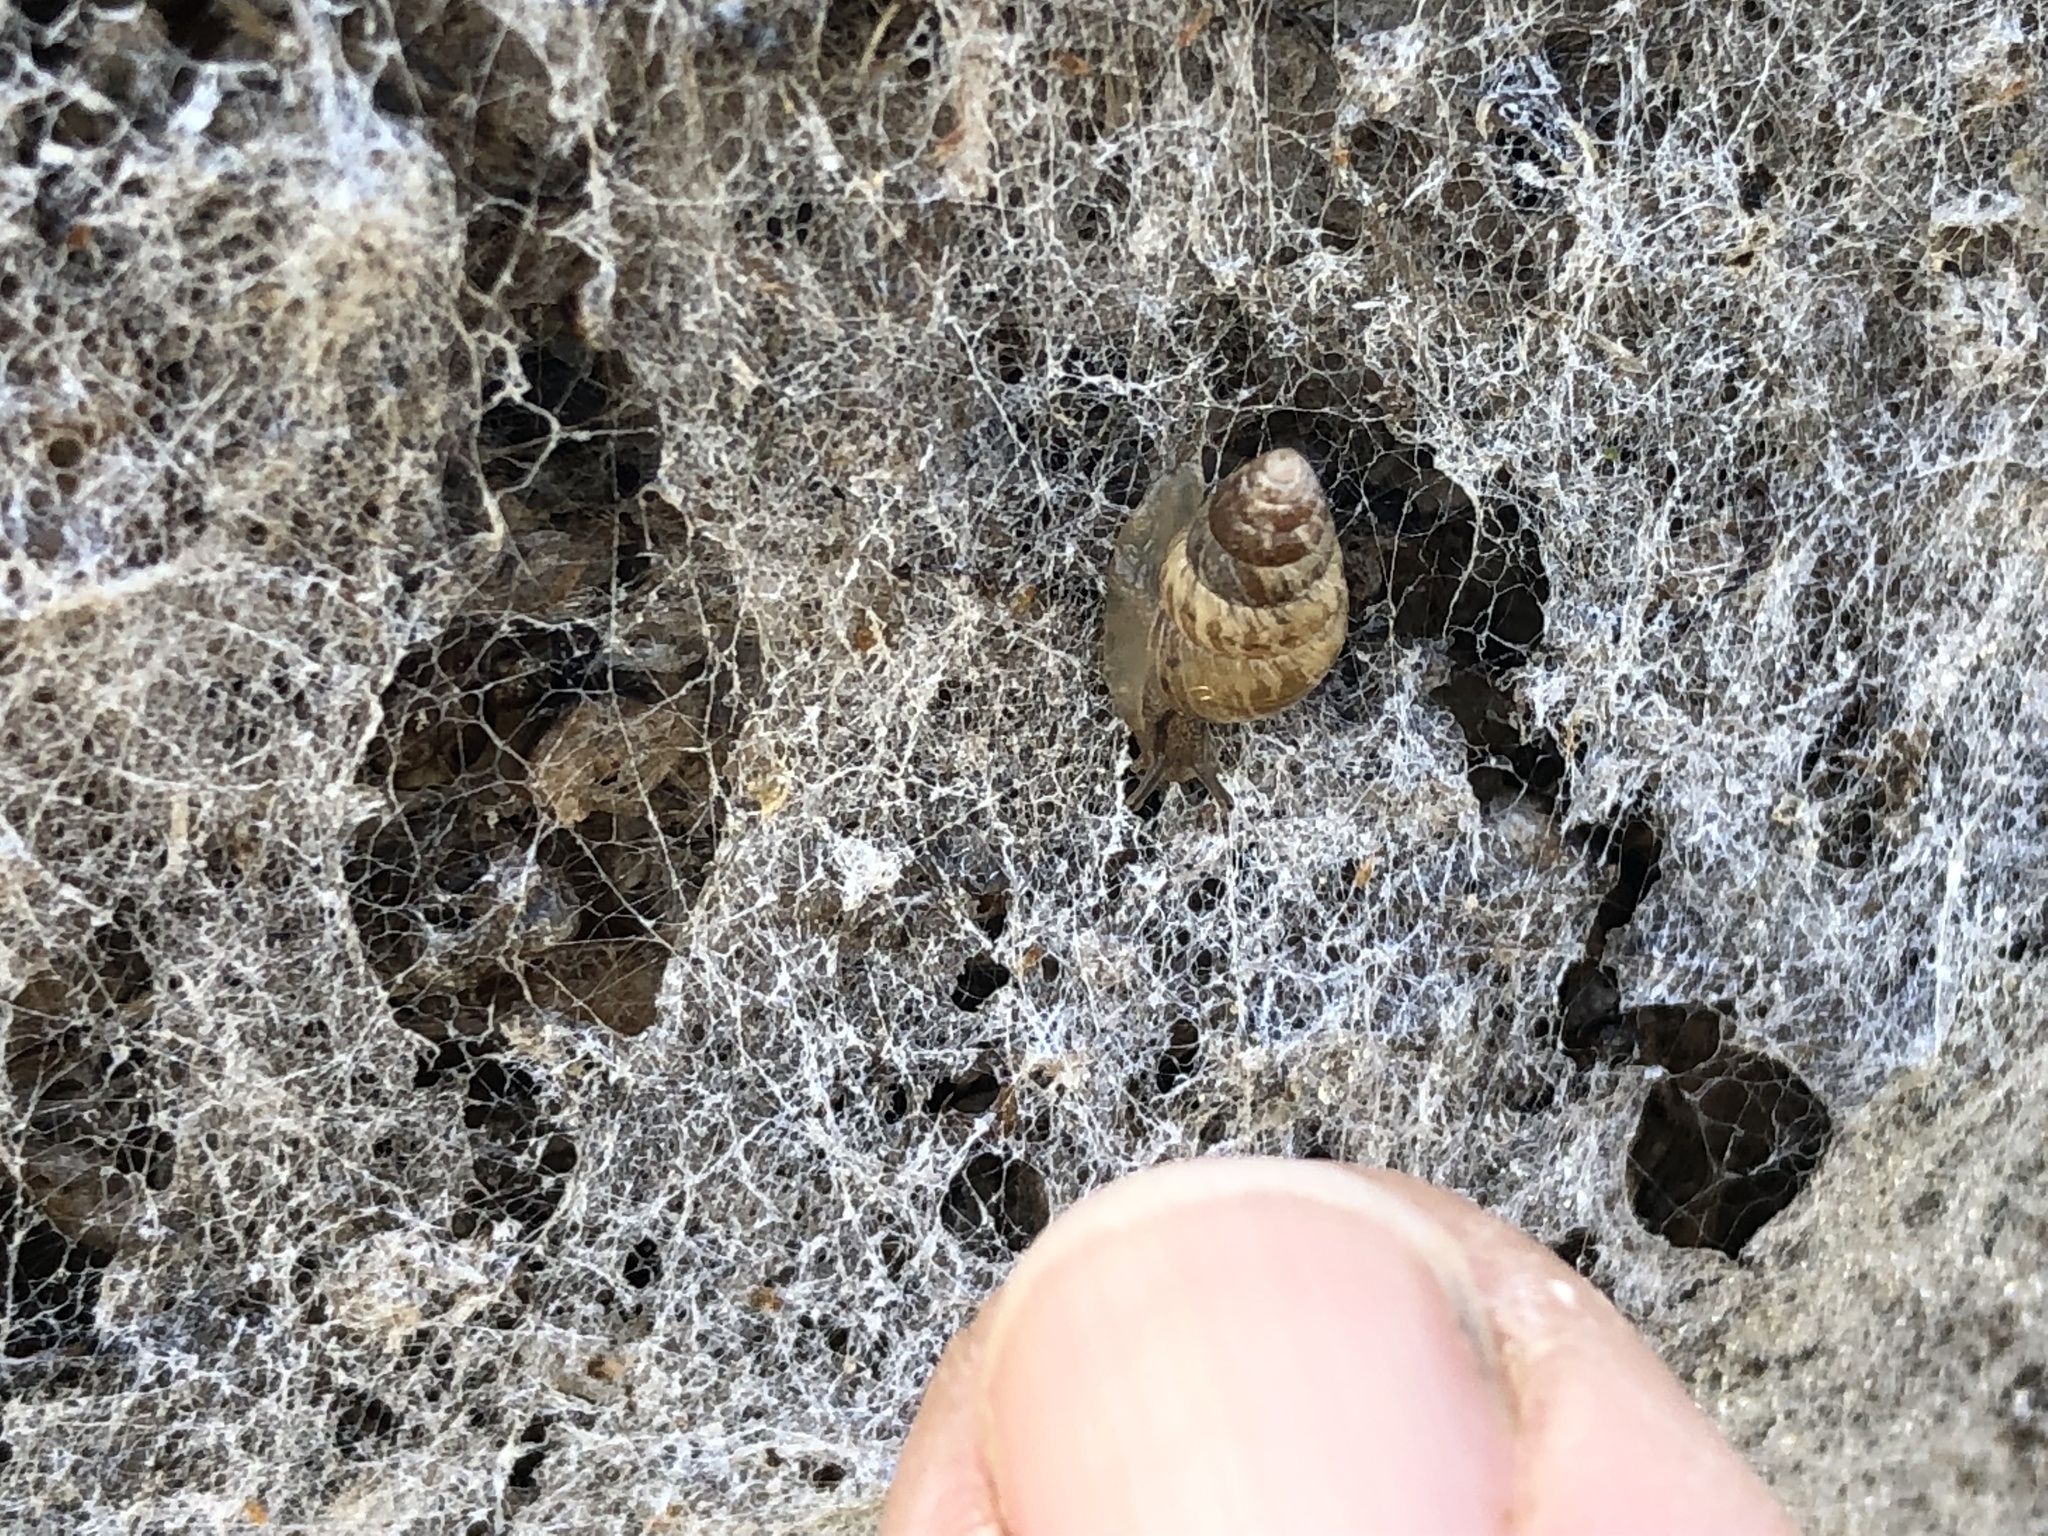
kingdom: Animalia
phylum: Mollusca
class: Gastropoda
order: Stylommatophora
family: Geomitridae
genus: Cochlicella
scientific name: Cochlicella barbara
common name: Potbellied helicellid
